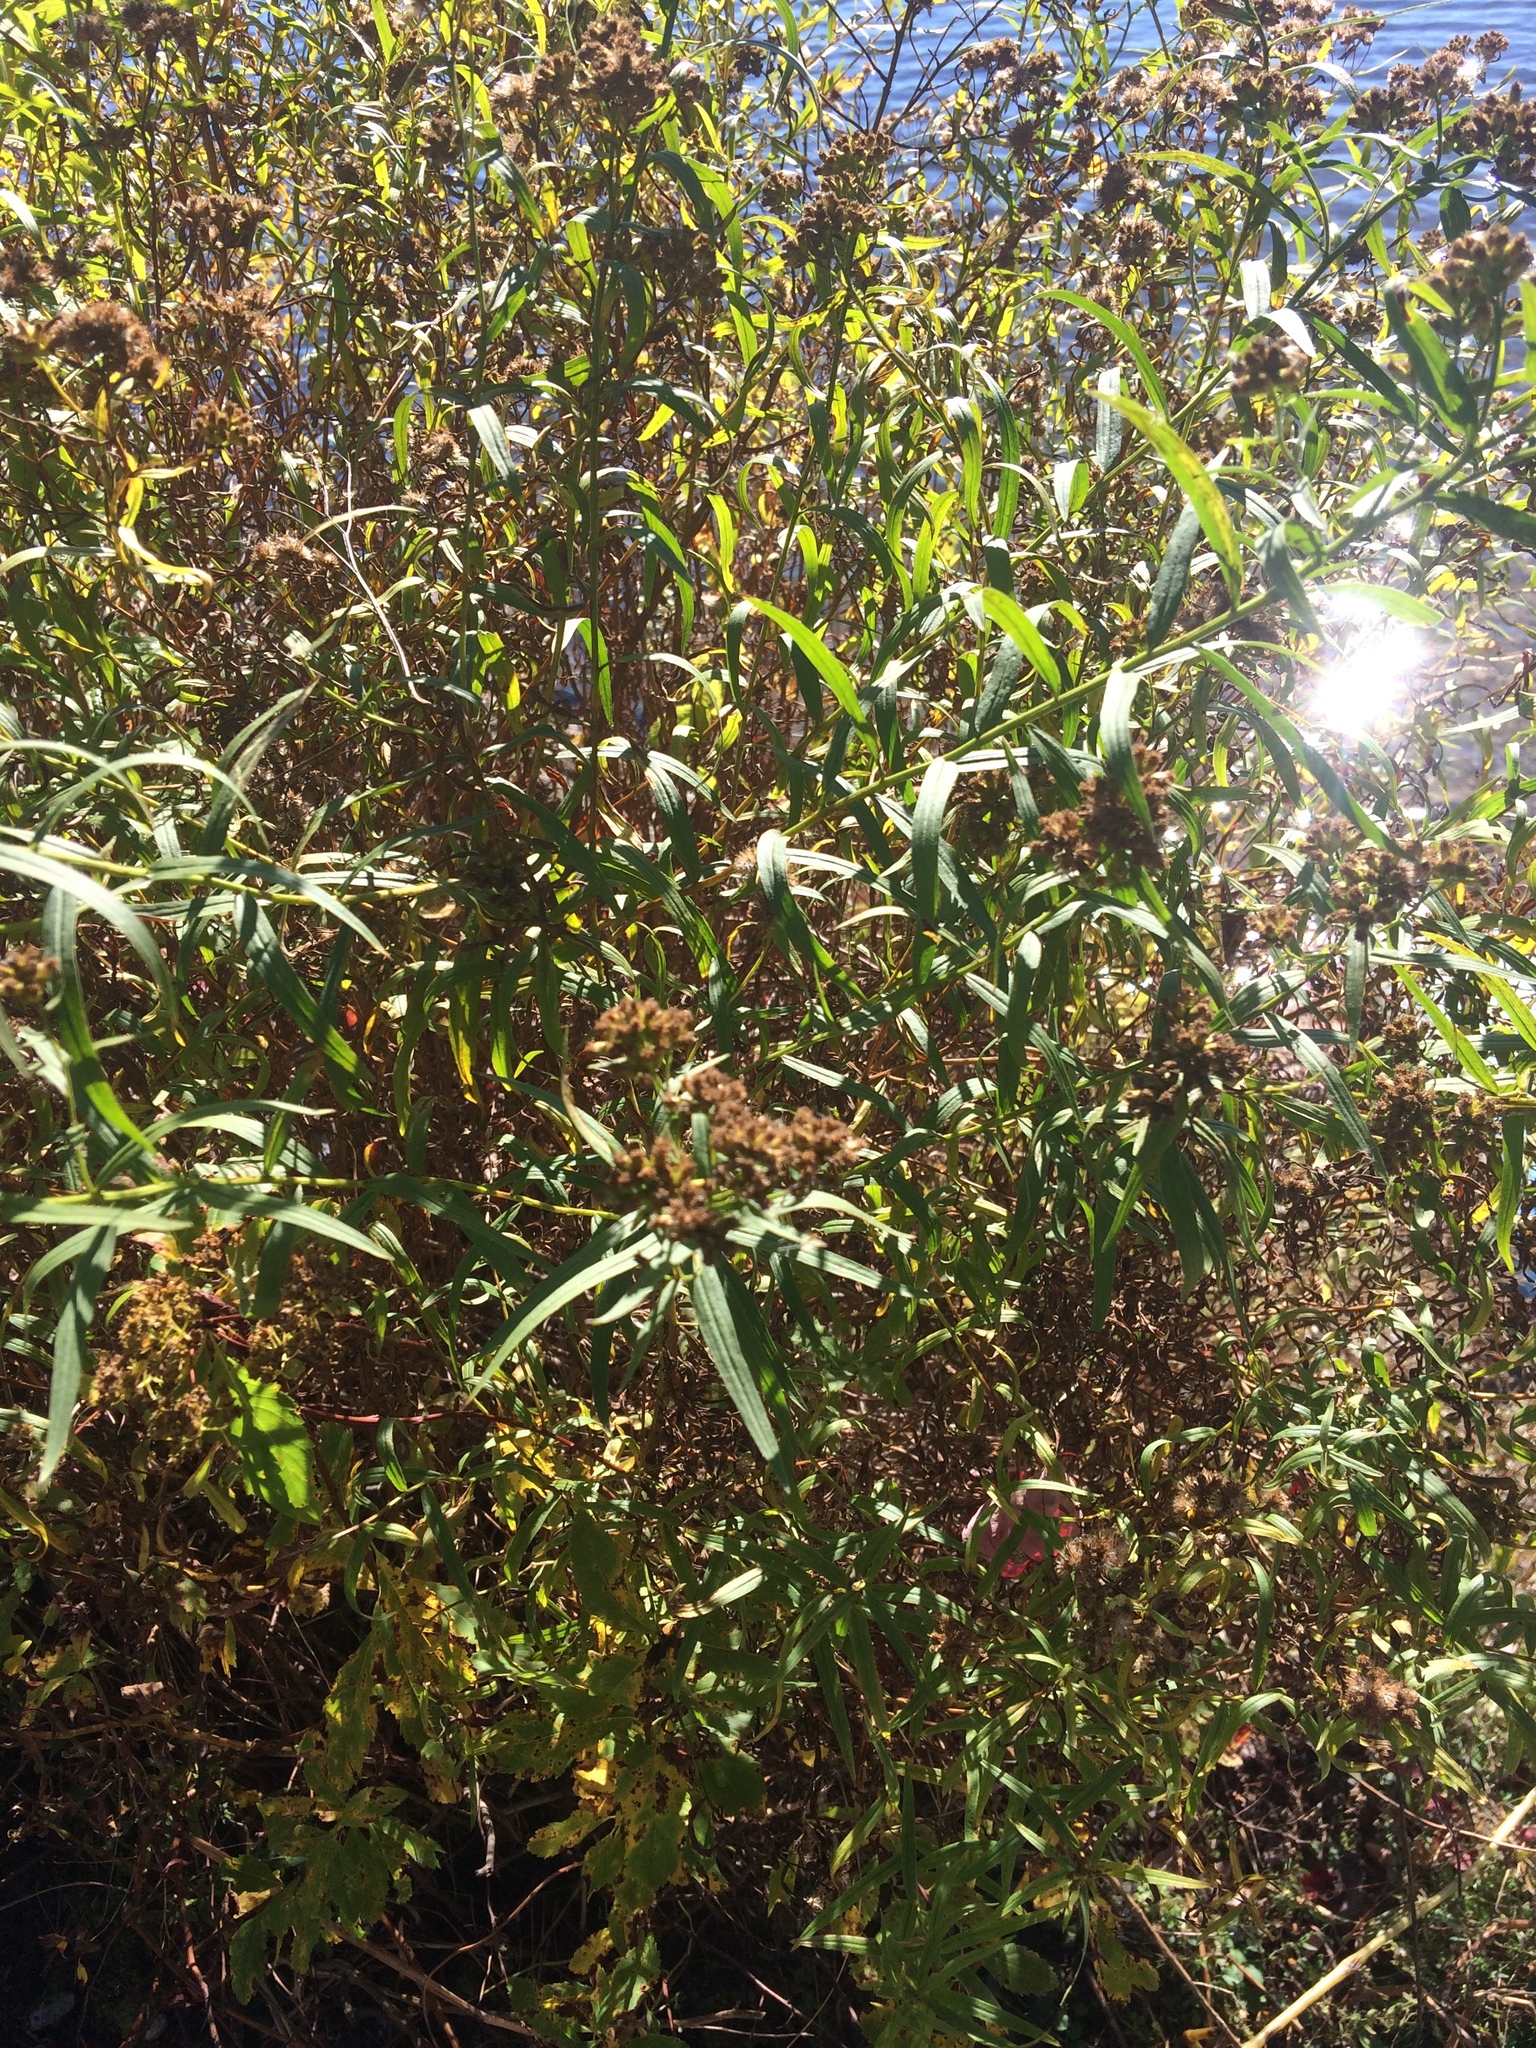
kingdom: Plantae
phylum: Tracheophyta
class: Magnoliopsida
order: Asterales
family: Asteraceae
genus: Euthamia
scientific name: Euthamia graminifolia
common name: Common goldentop
